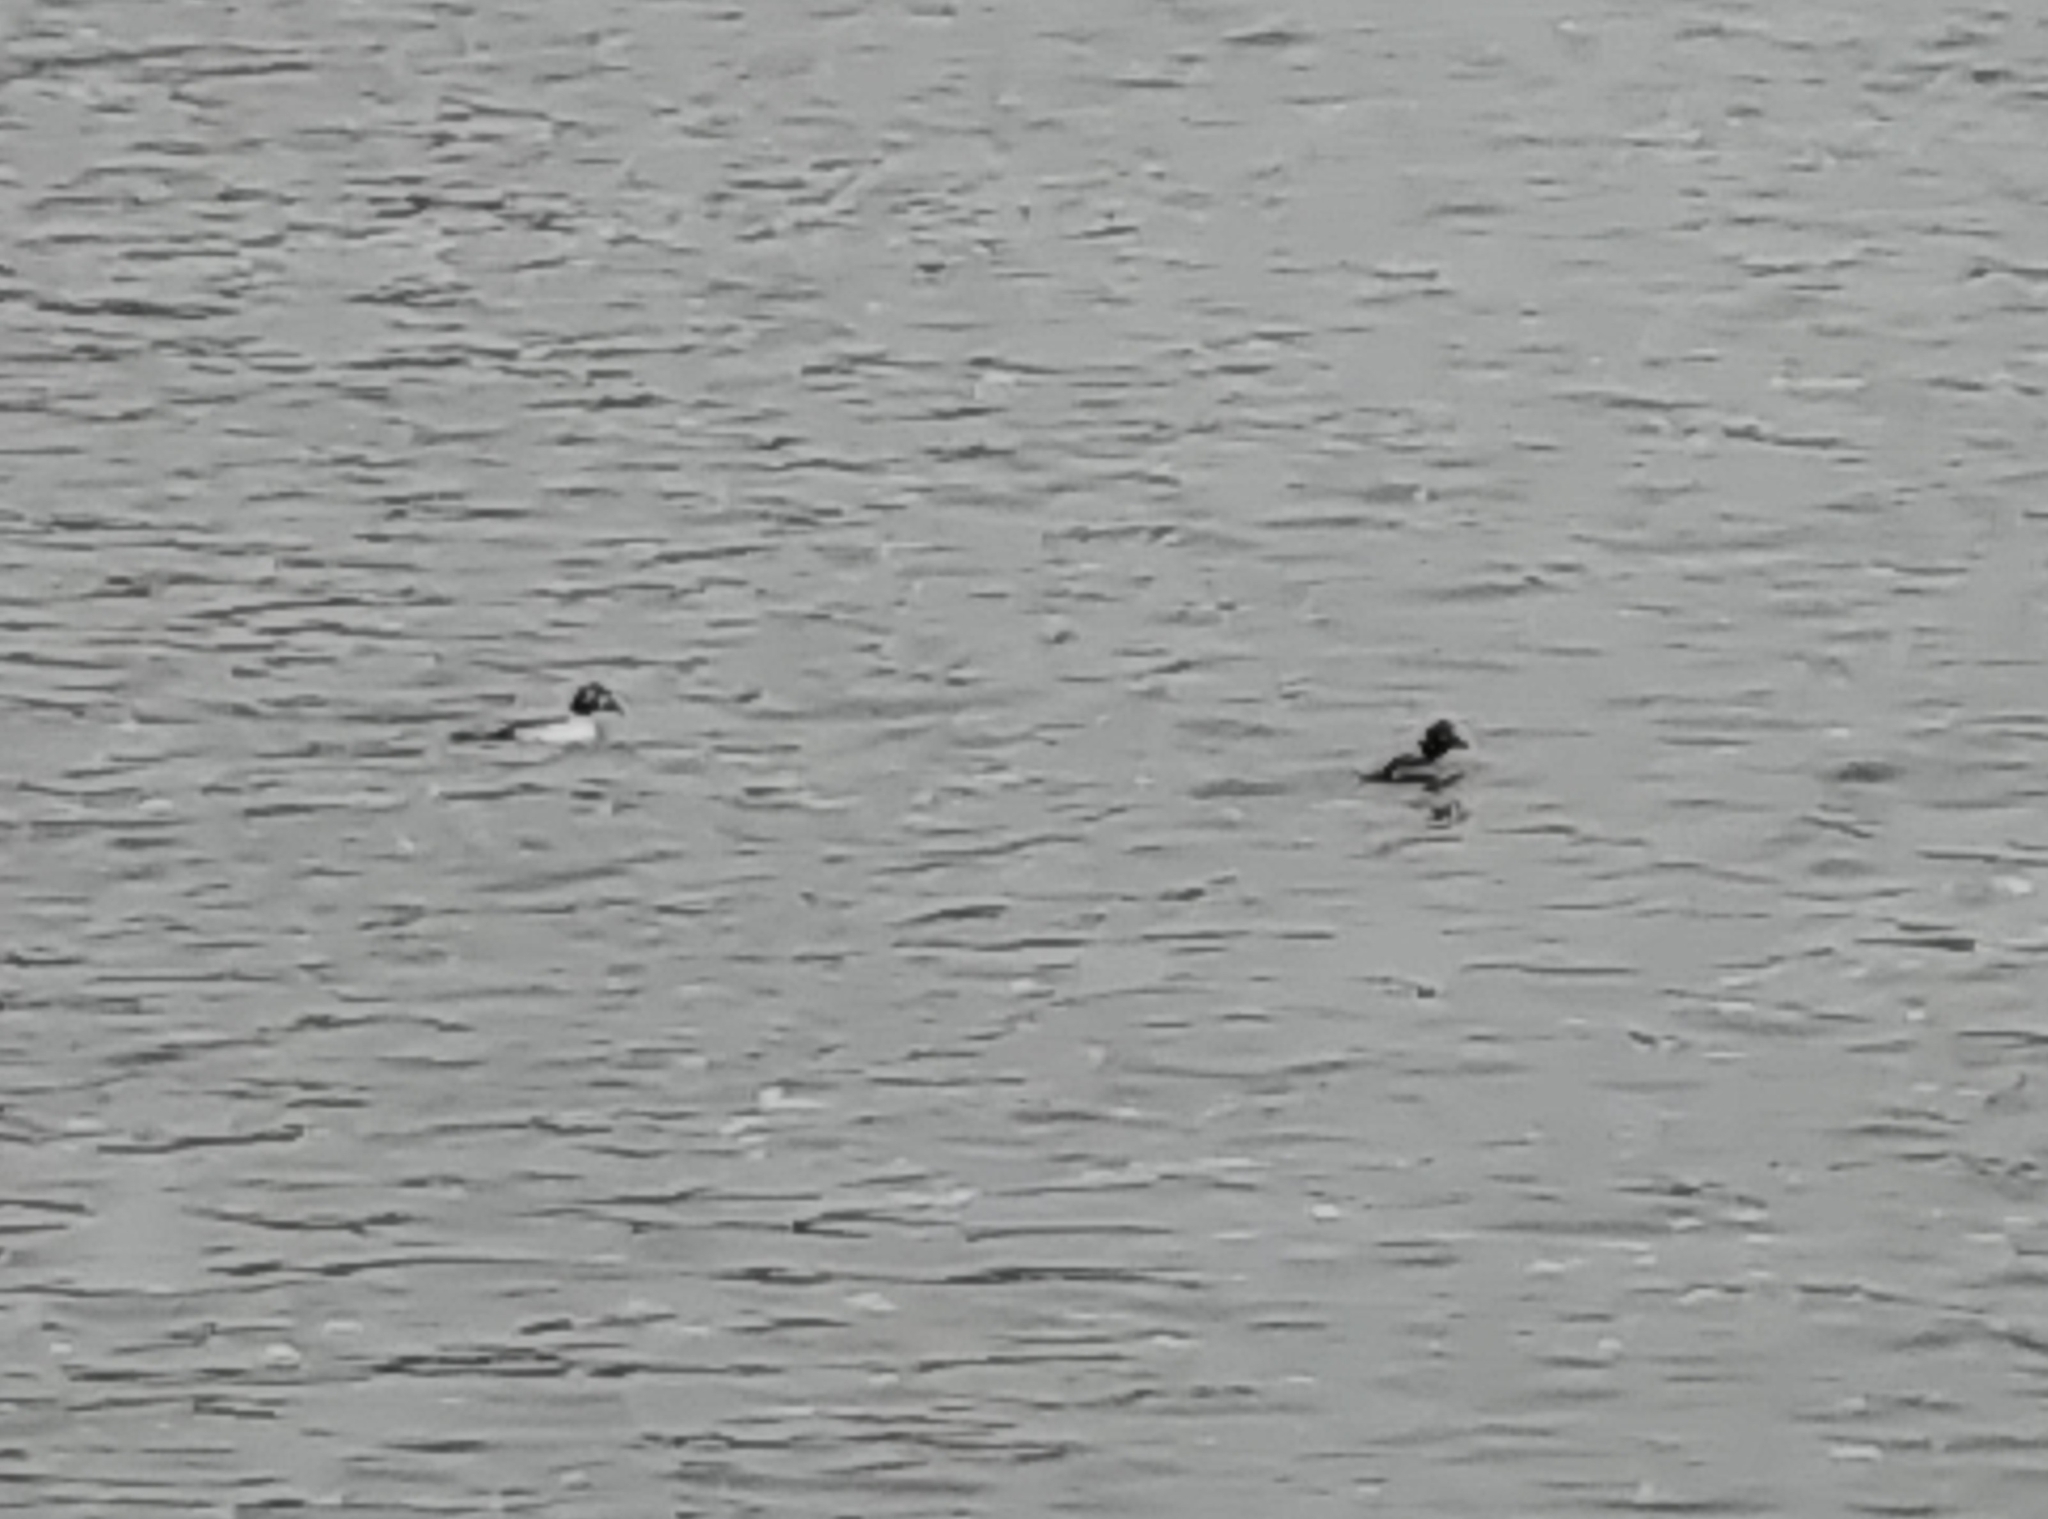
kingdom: Animalia
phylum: Chordata
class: Aves
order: Anseriformes
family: Anatidae
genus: Bucephala
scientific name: Bucephala clangula
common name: Common goldeneye
